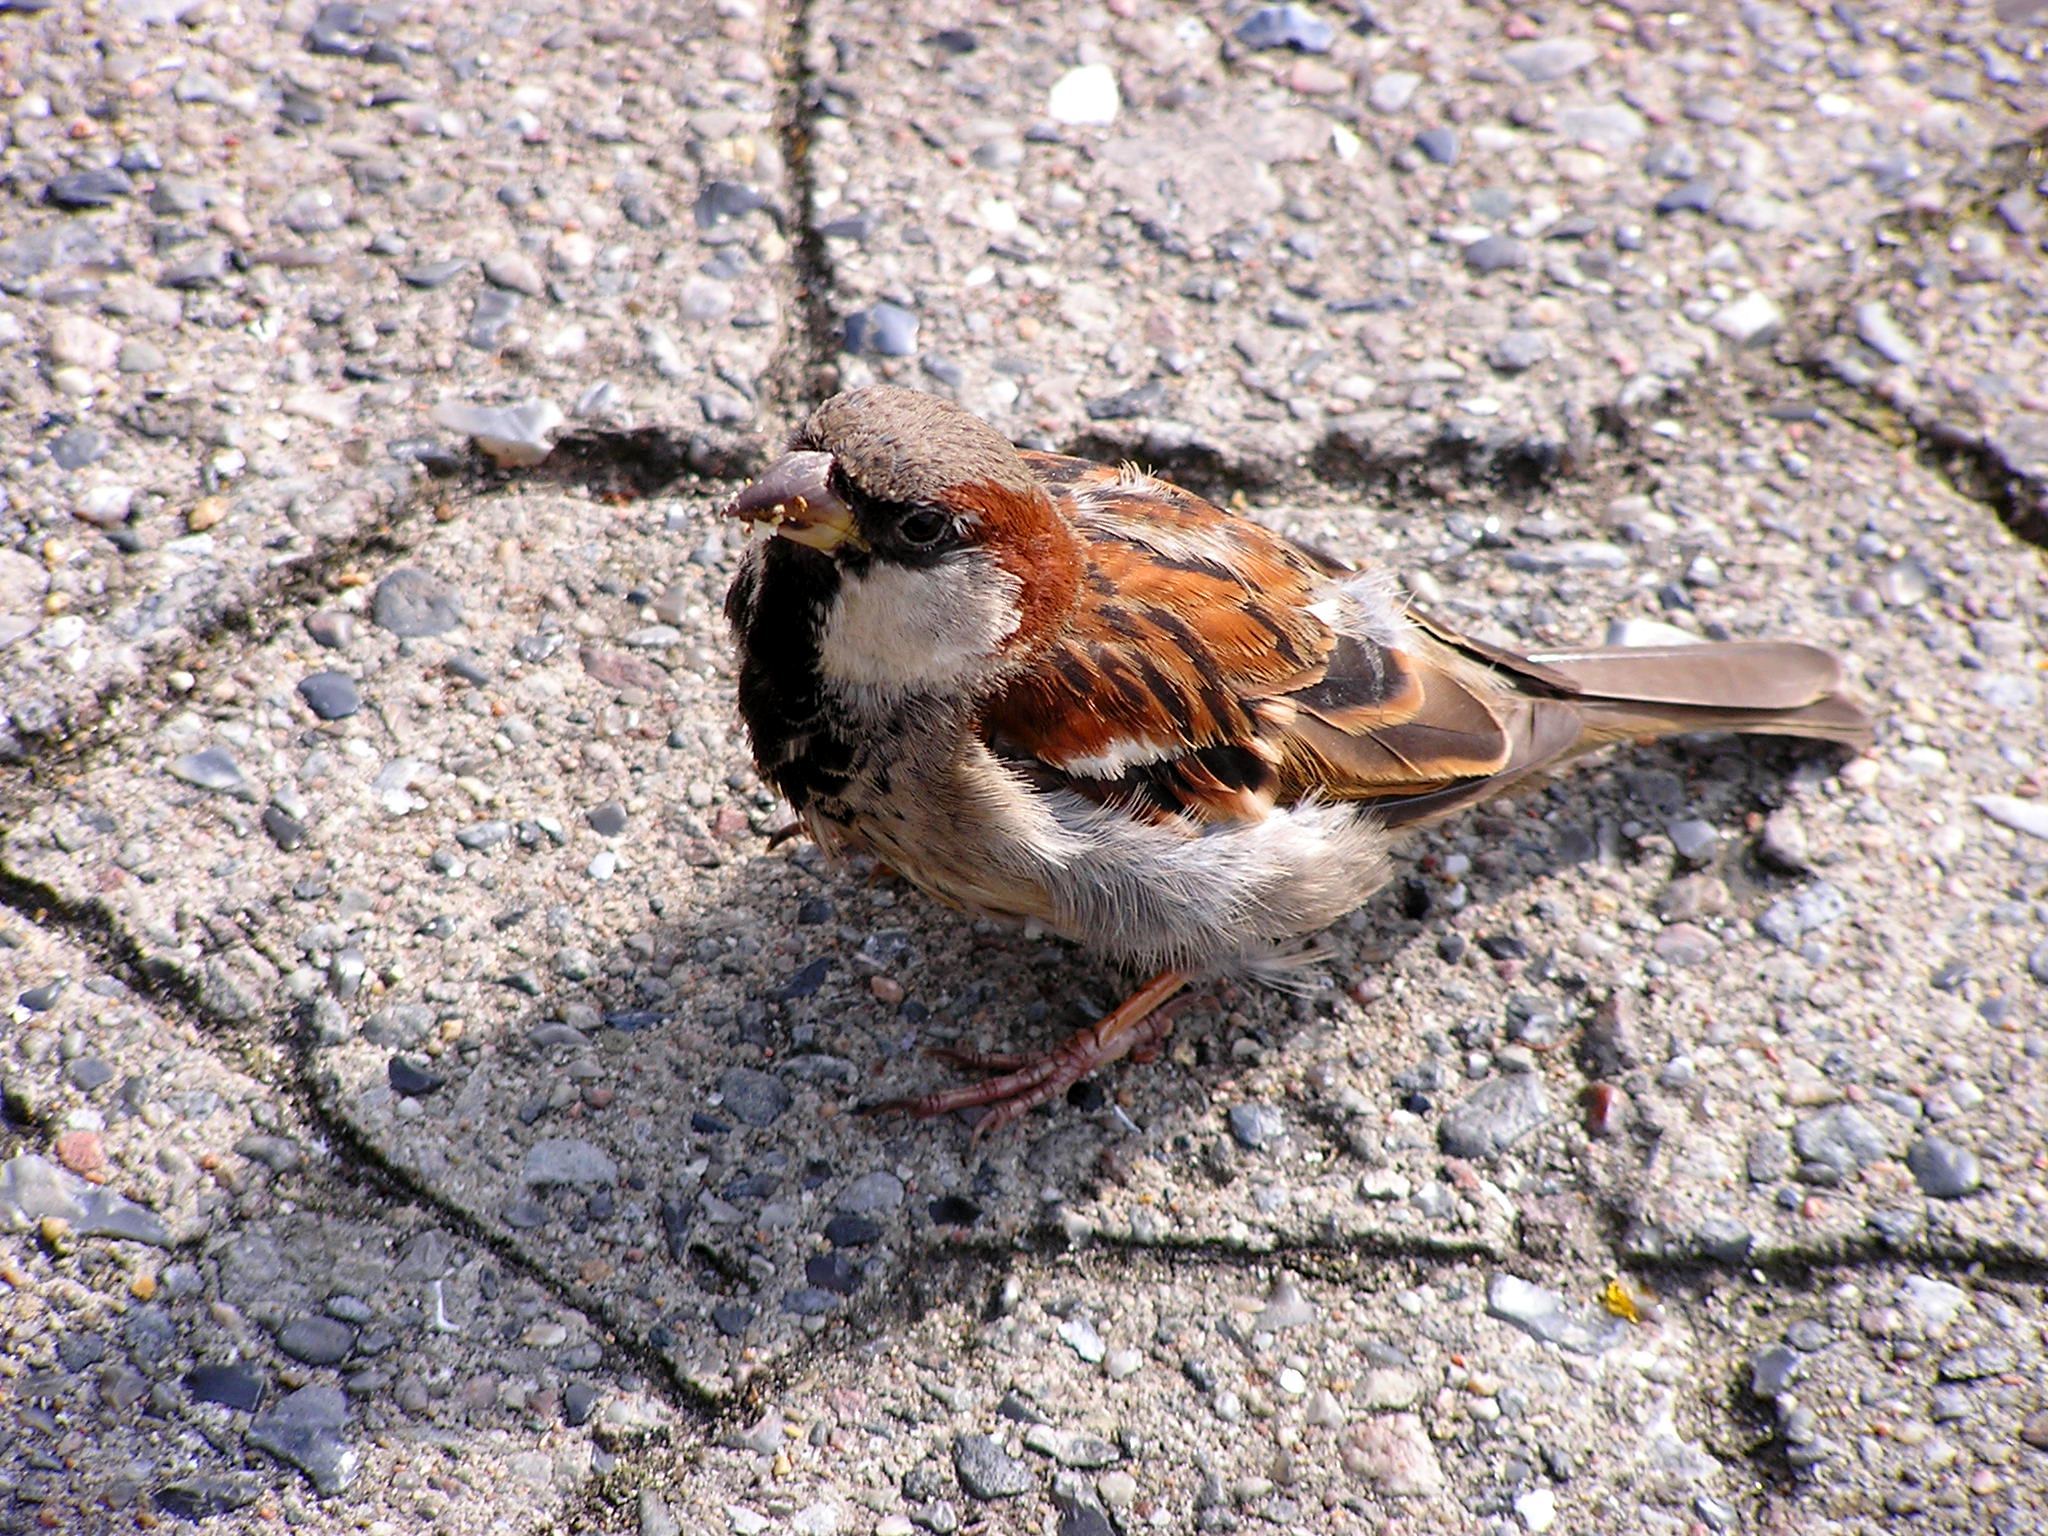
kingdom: Animalia
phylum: Chordata
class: Aves
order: Passeriformes
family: Passeridae
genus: Passer
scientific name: Passer domesticus
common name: House sparrow
